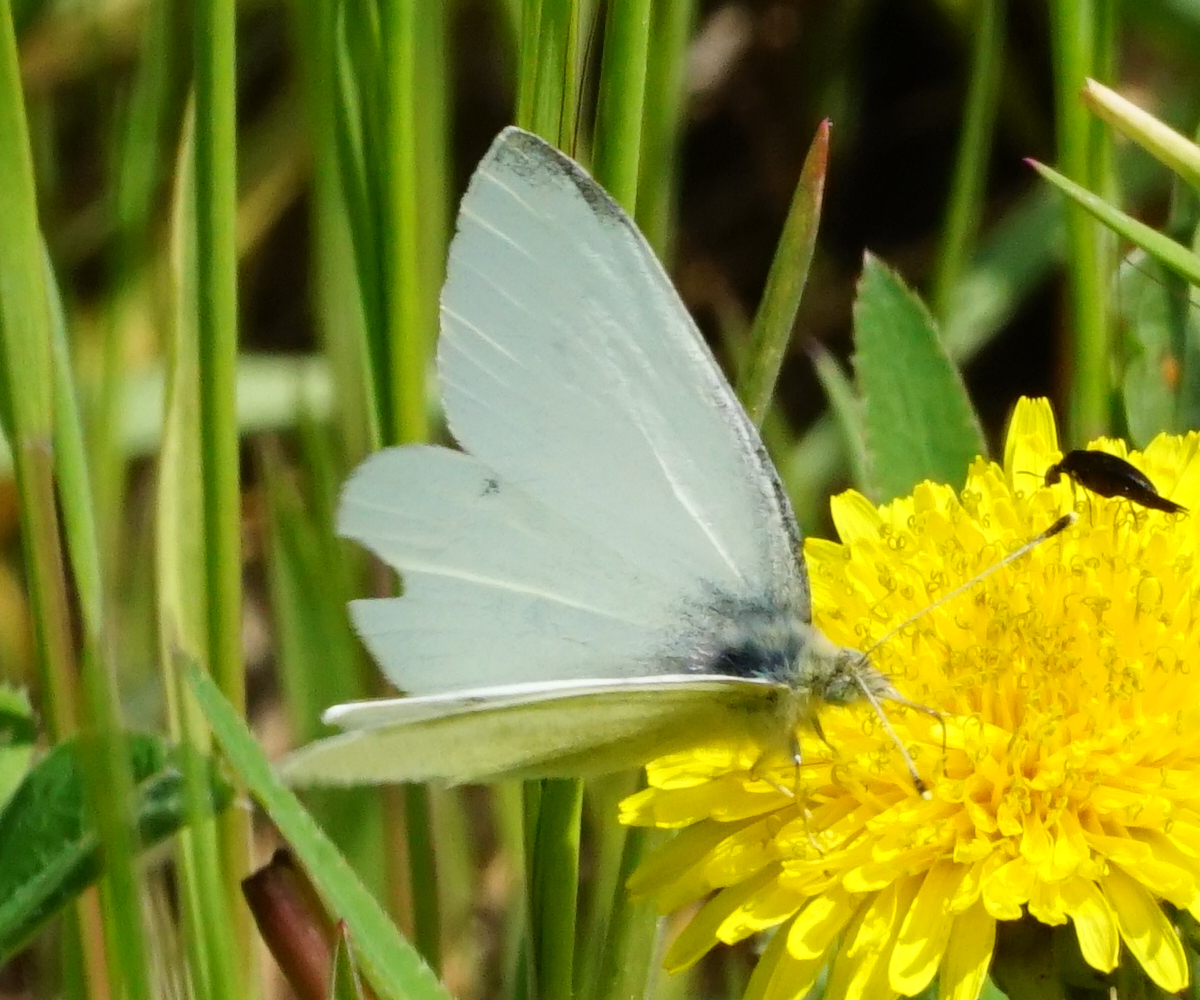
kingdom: Animalia
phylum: Arthropoda
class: Insecta
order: Lepidoptera
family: Pieridae
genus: Pieris
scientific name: Pieris rapae
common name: Small white
